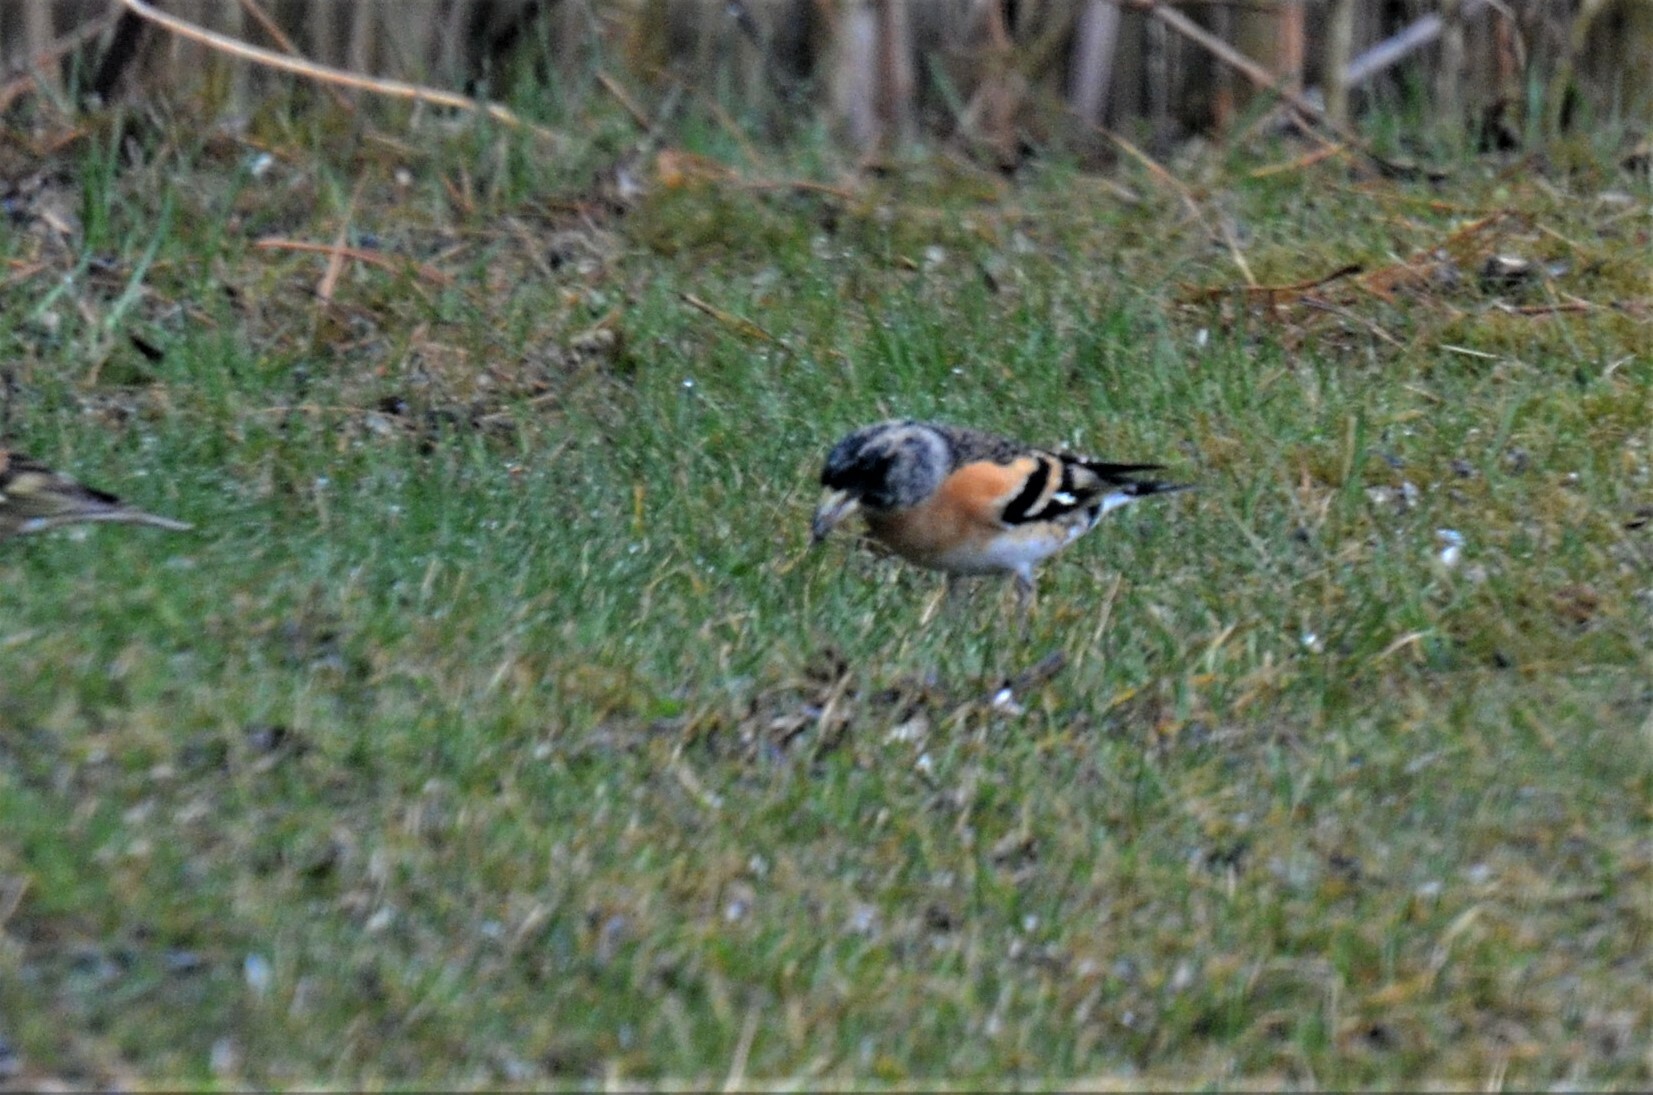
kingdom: Animalia
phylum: Chordata
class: Aves
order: Passeriformes
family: Fringillidae
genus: Fringilla
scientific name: Fringilla montifringilla
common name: Brambling
